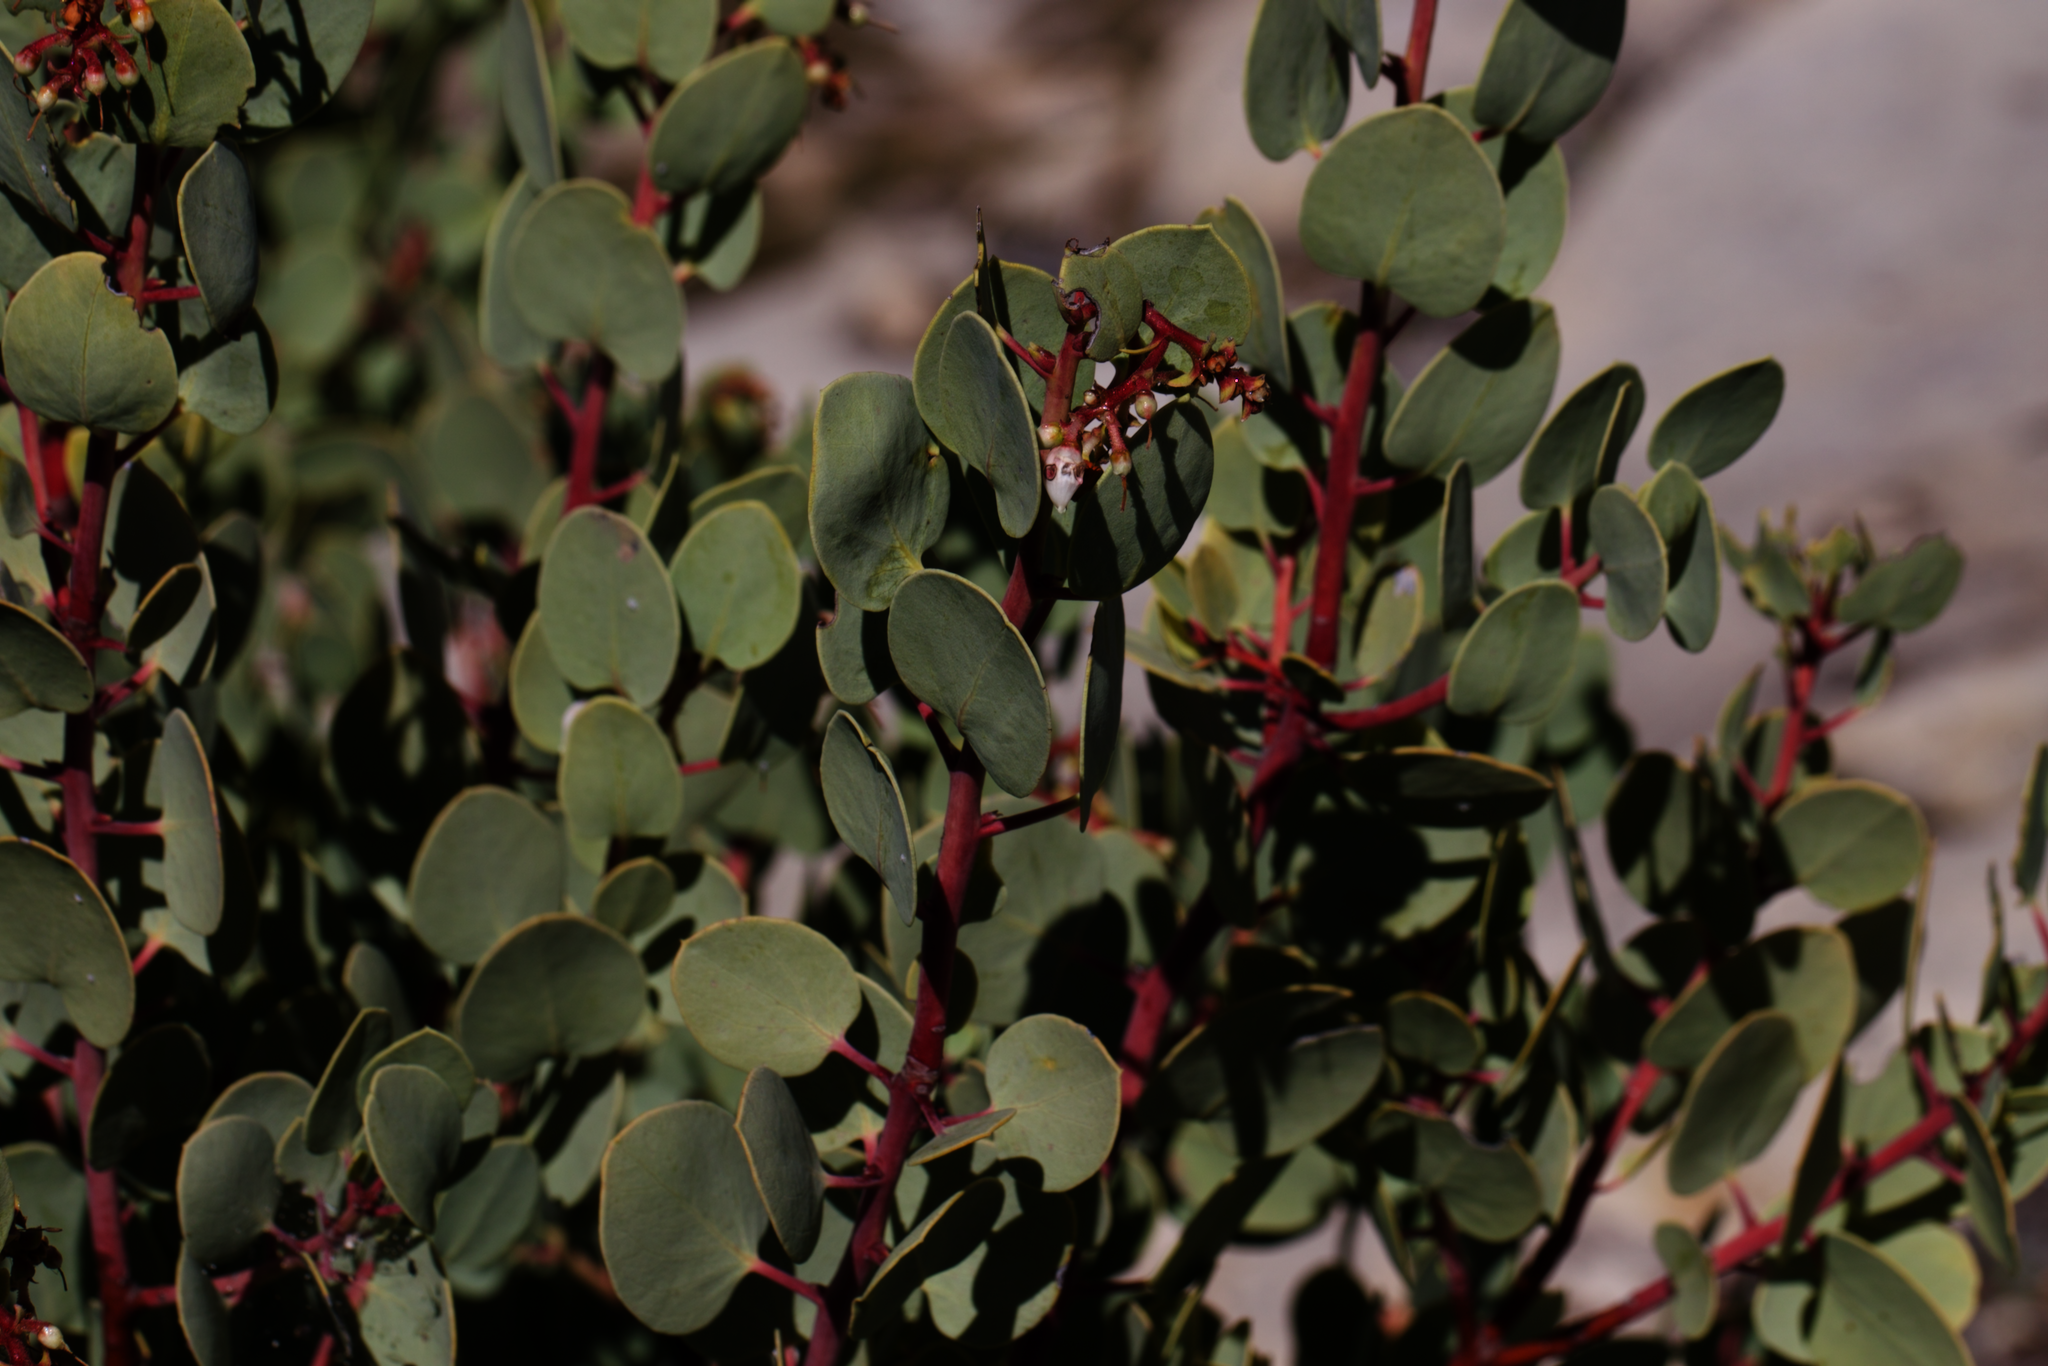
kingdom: Plantae
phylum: Tracheophyta
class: Magnoliopsida
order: Ericales
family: Ericaceae
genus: Arctostaphylos
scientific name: Arctostaphylos glauca
